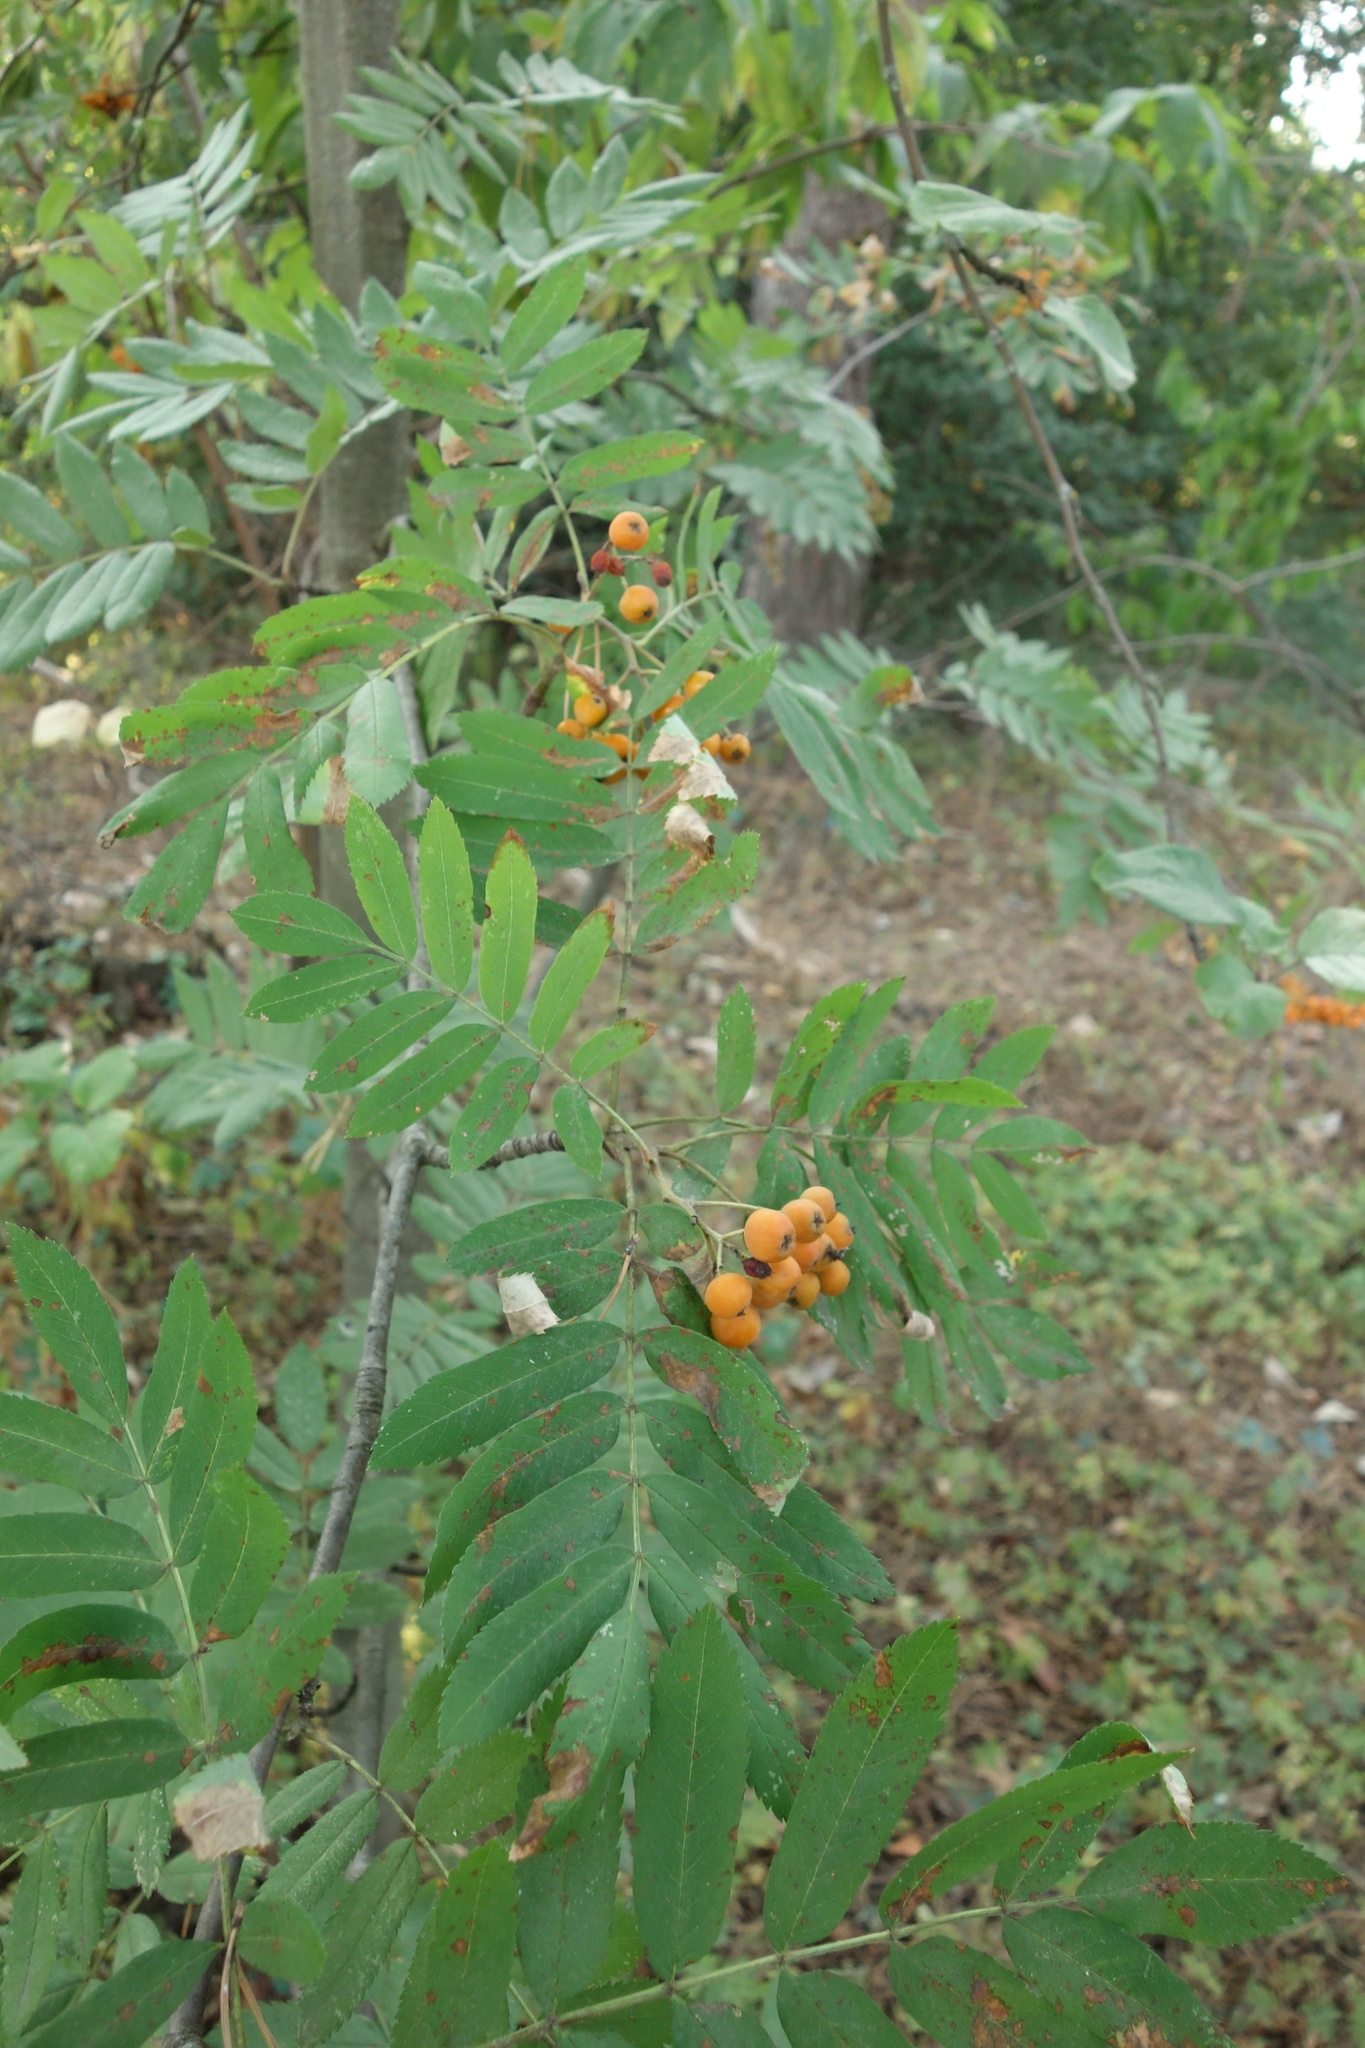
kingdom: Plantae
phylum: Tracheophyta
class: Magnoliopsida
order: Rosales
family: Rosaceae
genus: Sorbus
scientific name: Sorbus aucuparia
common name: Rowan
